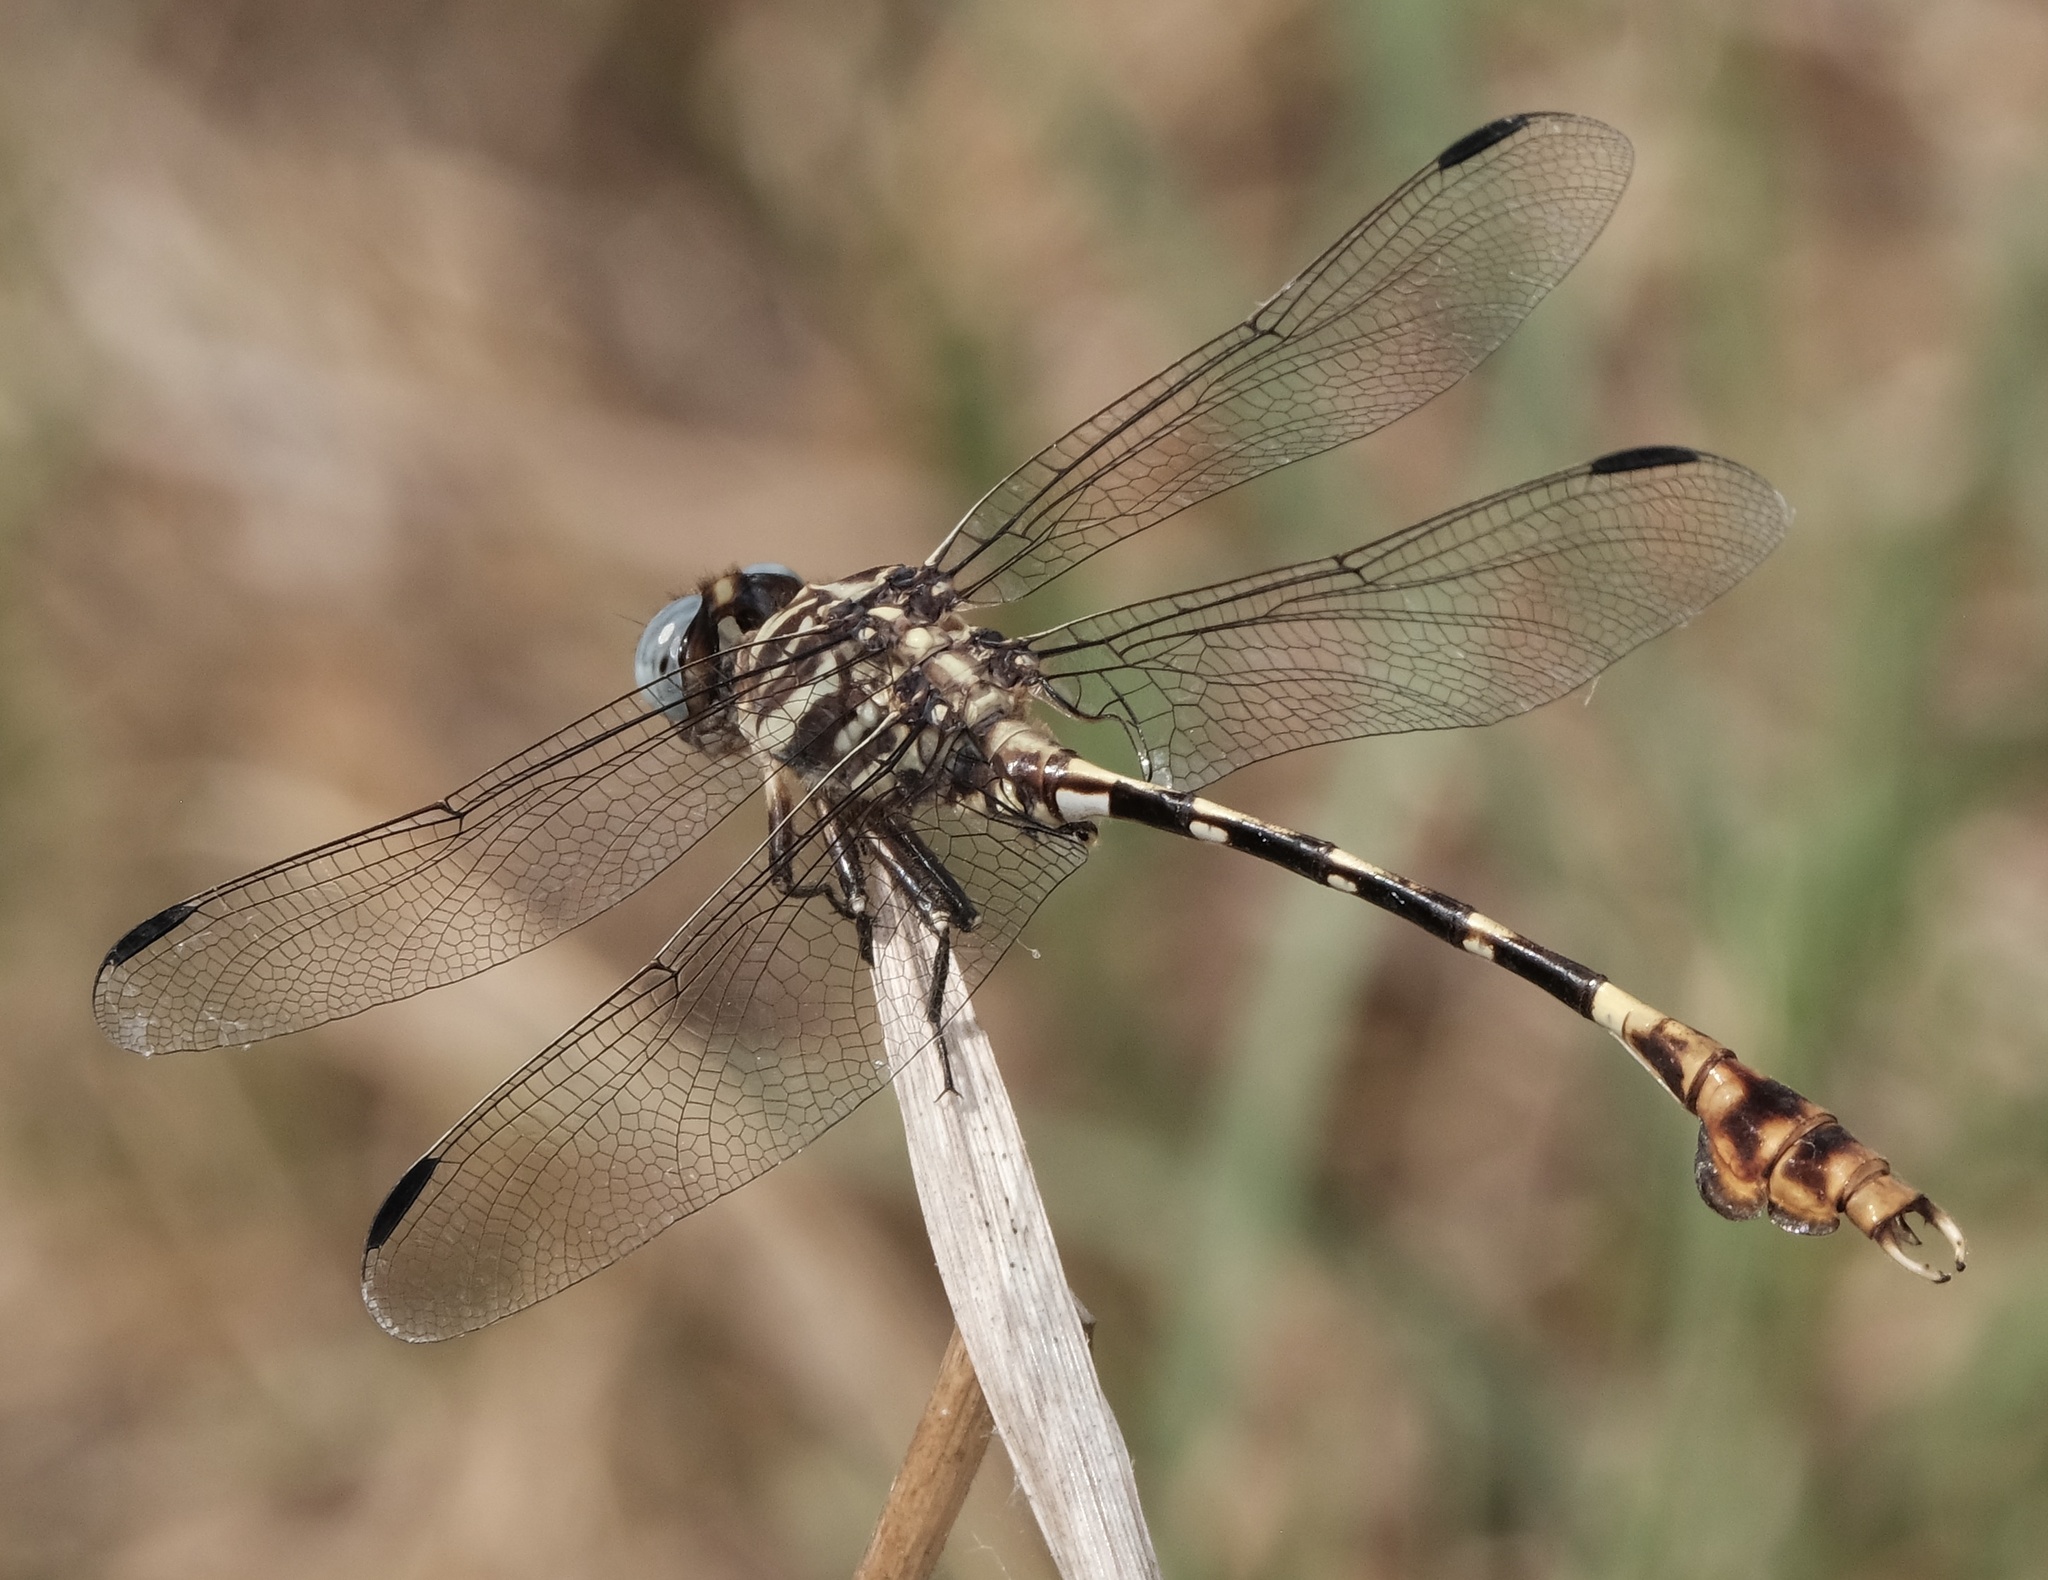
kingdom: Animalia
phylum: Arthropoda
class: Insecta
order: Odonata
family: Gomphidae
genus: Phyllogomphoides
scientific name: Phyllogomphoides albrighti
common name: Five-striped leaftail
